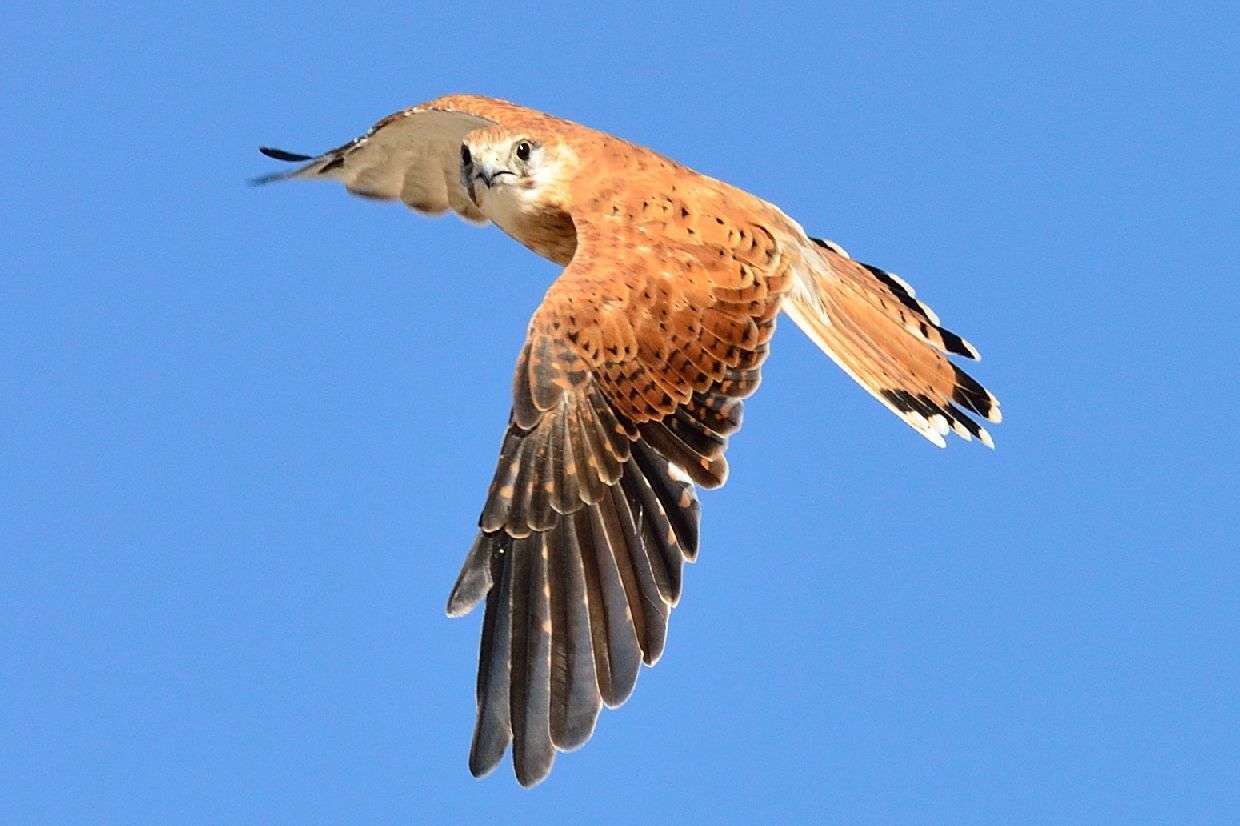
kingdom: Animalia
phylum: Chordata
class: Aves
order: Falconiformes
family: Falconidae
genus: Falco
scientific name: Falco cenchroides
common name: Nankeen kestrel
